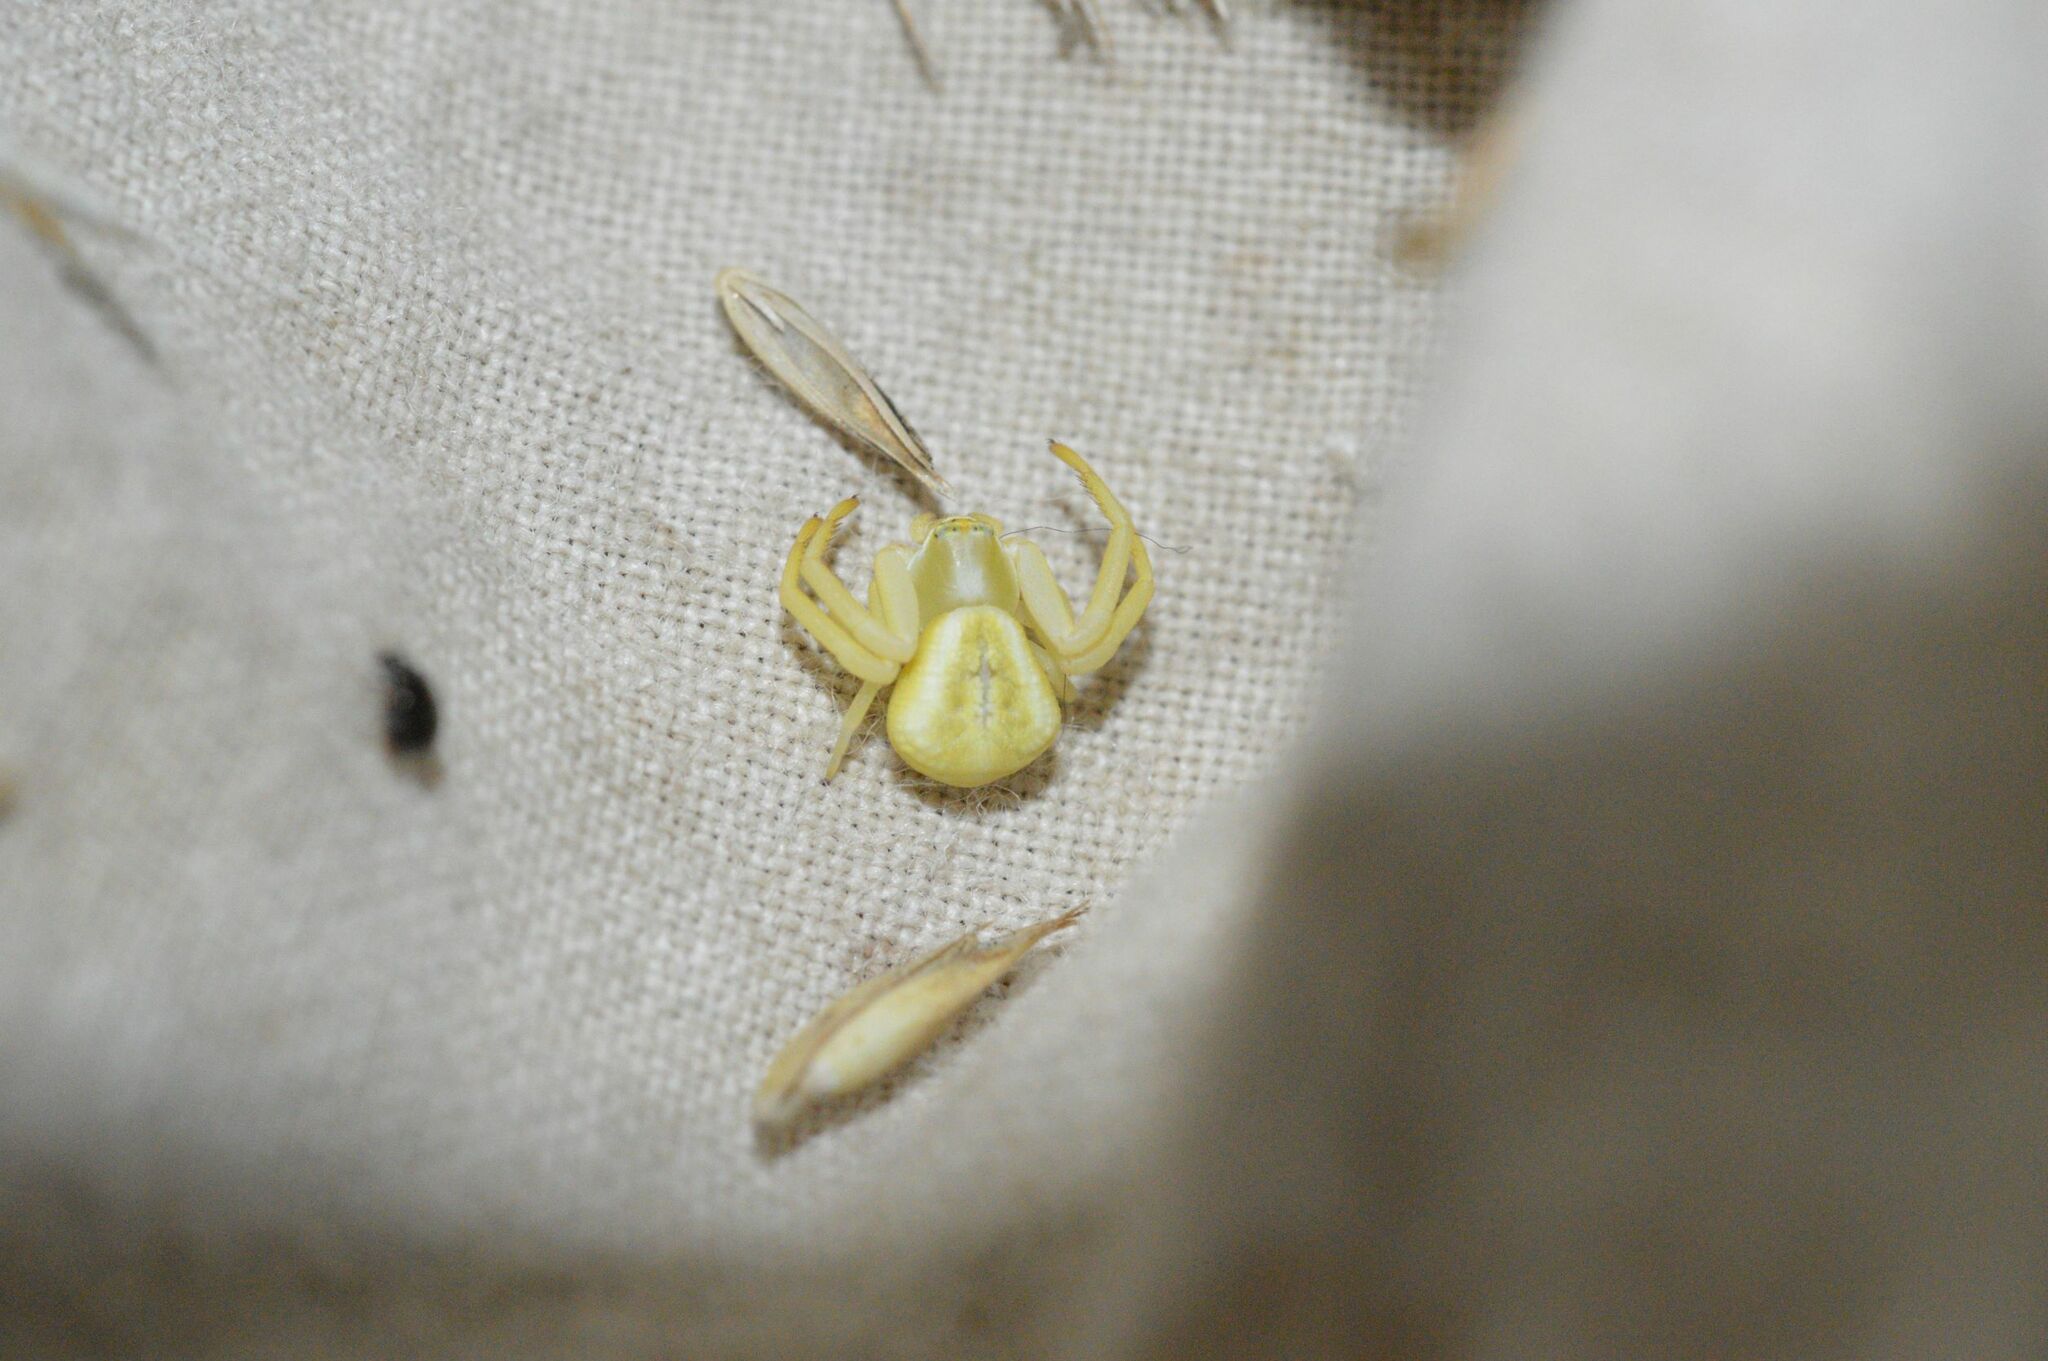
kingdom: Animalia
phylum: Arthropoda
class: Arachnida
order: Araneae
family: Thomisidae
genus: Misumenoides
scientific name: Misumenoides formosipes
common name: White-banded crab spider
